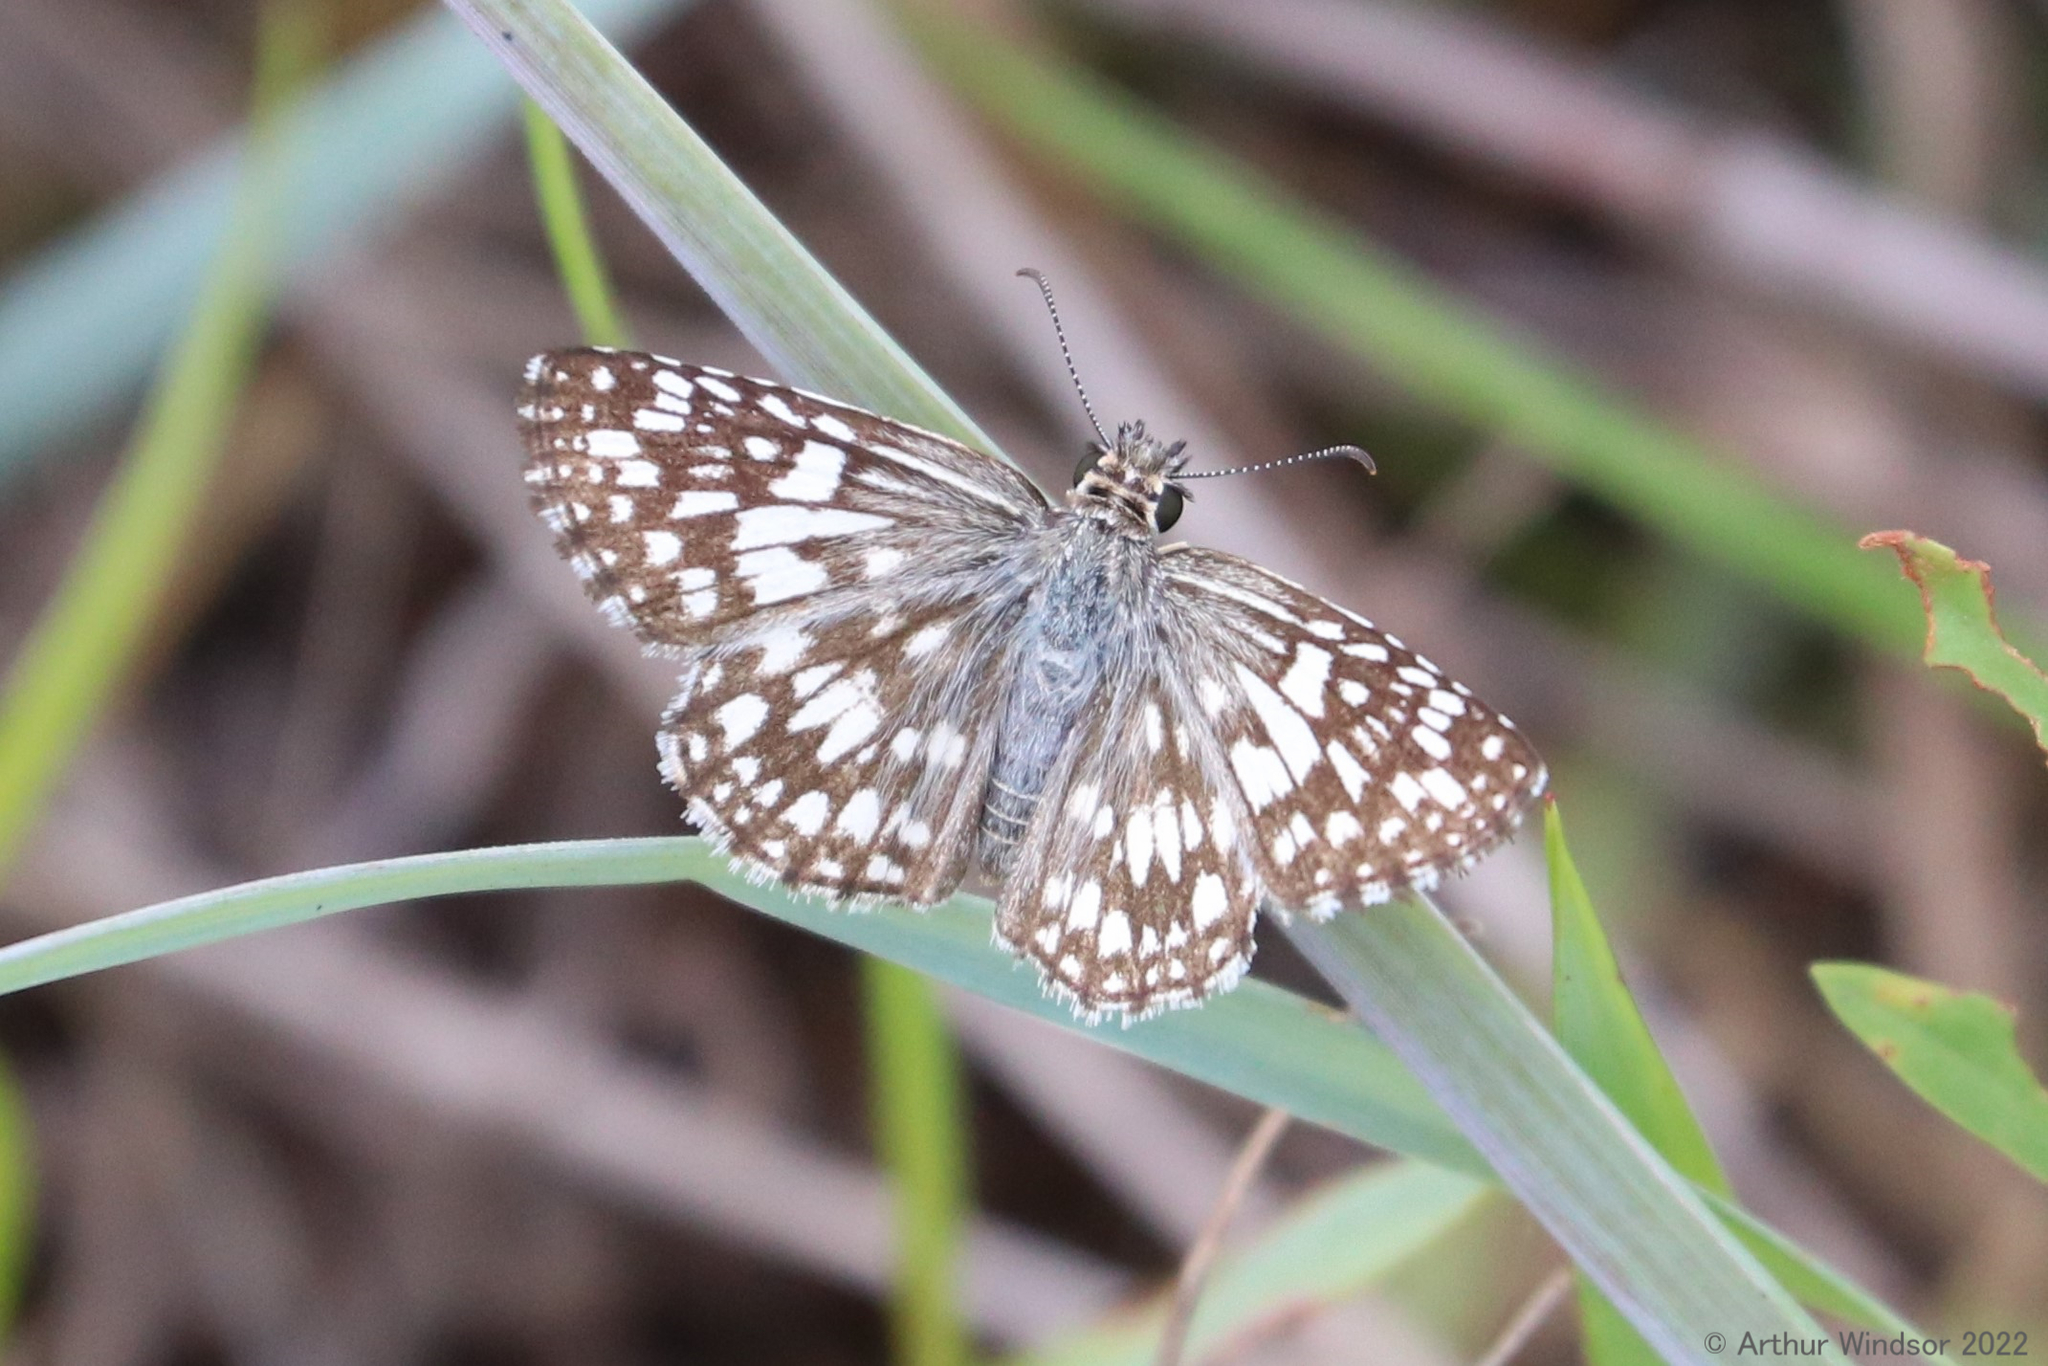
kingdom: Animalia
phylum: Arthropoda
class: Insecta
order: Lepidoptera
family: Hesperiidae
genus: Pyrgus
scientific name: Pyrgus oileus
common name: Tropical checkered-skipper
